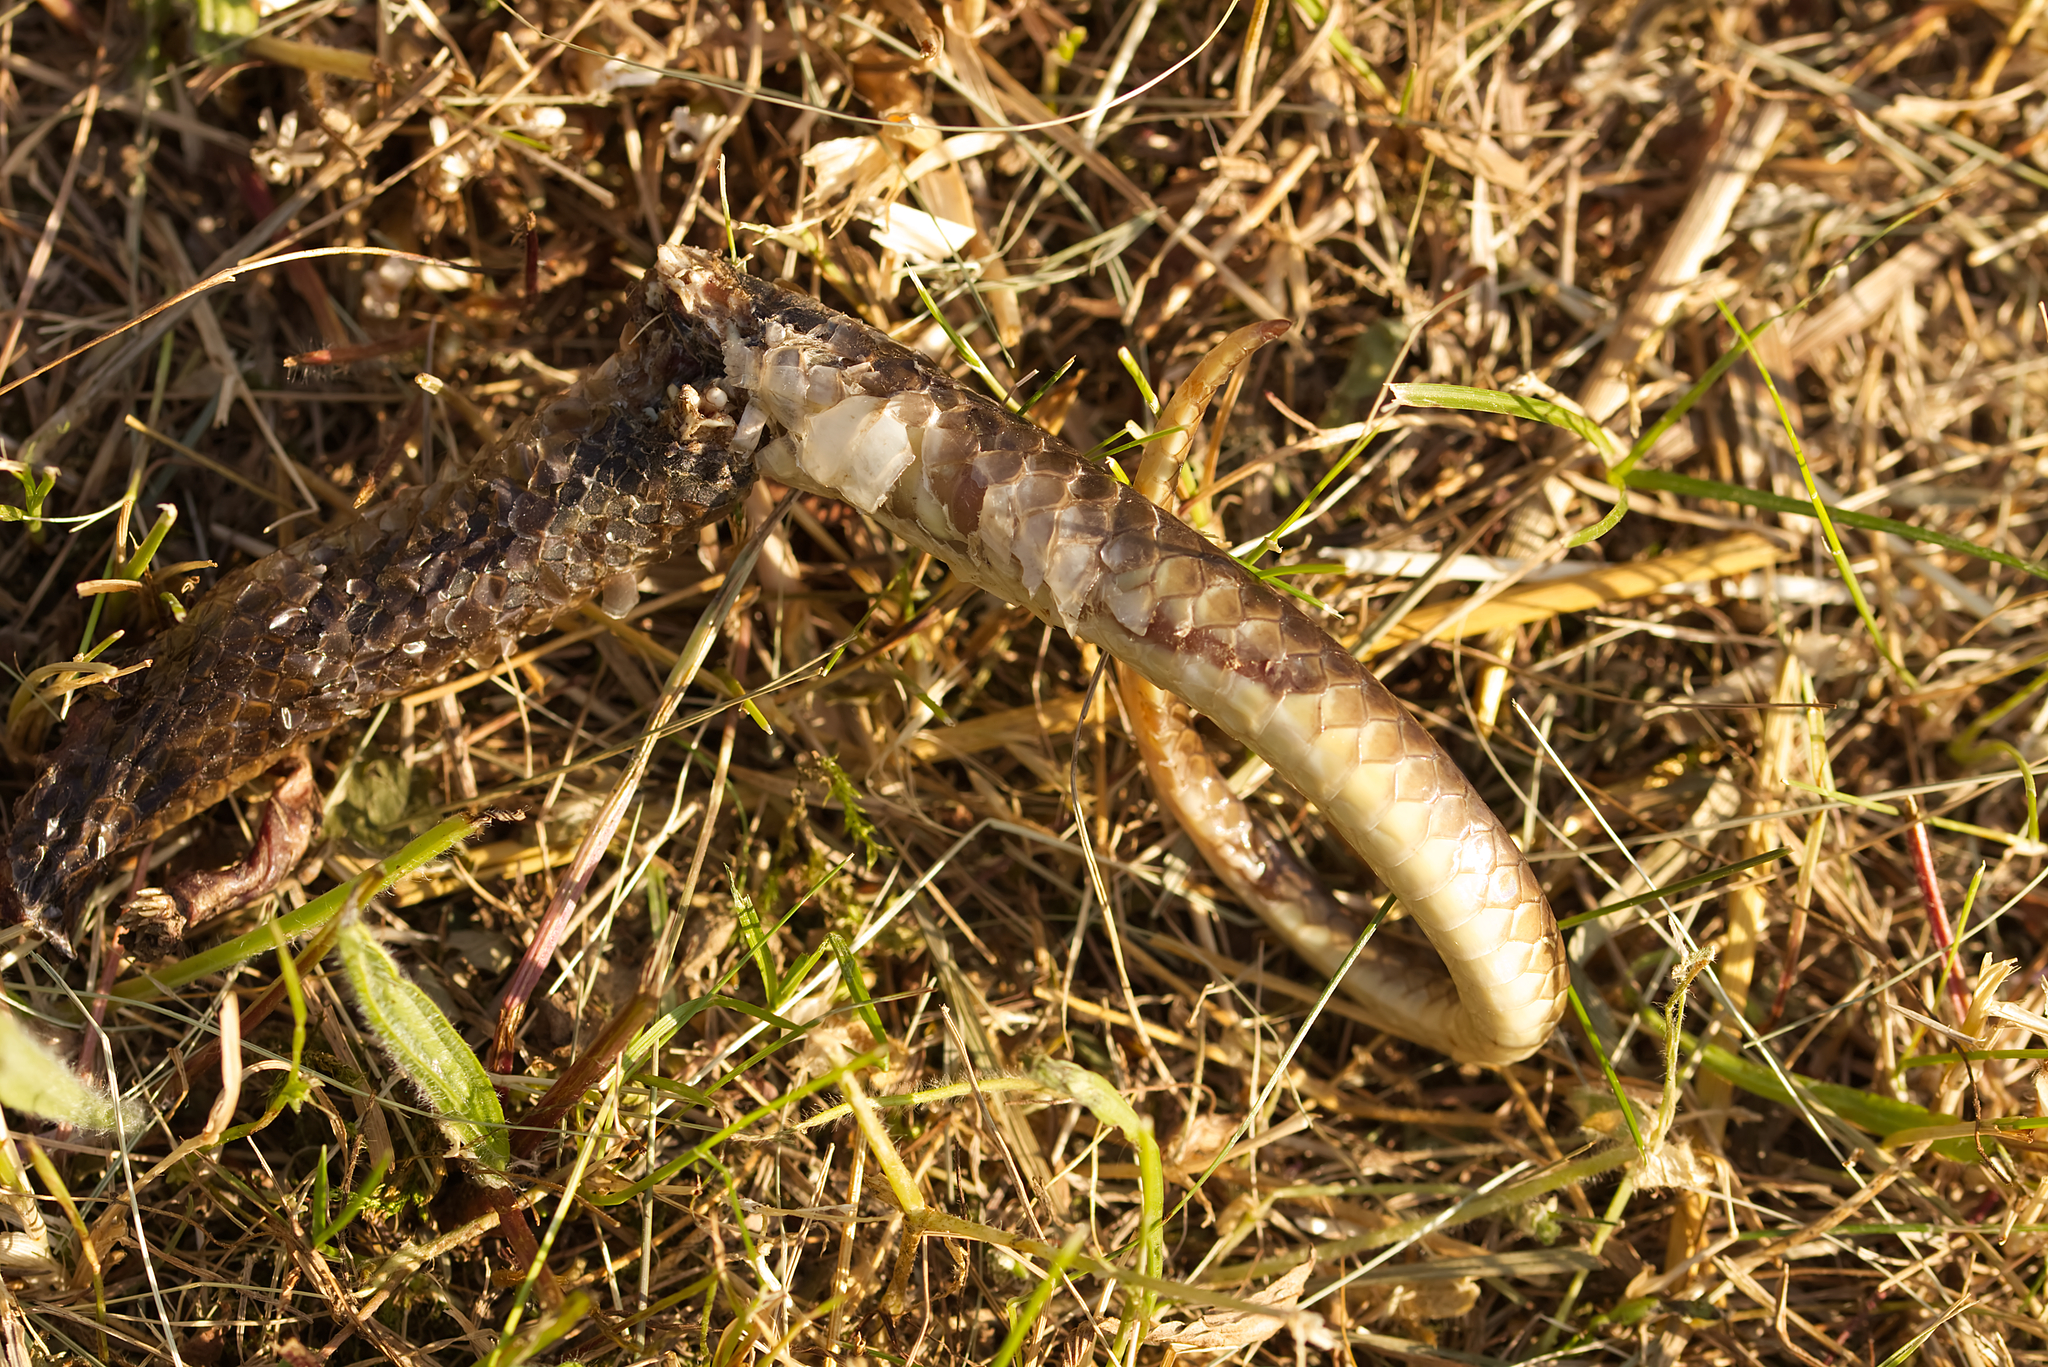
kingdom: Animalia
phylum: Chordata
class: Squamata
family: Colubridae
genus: Zamenis
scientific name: Zamenis longissimus
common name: Aesculapean snake
